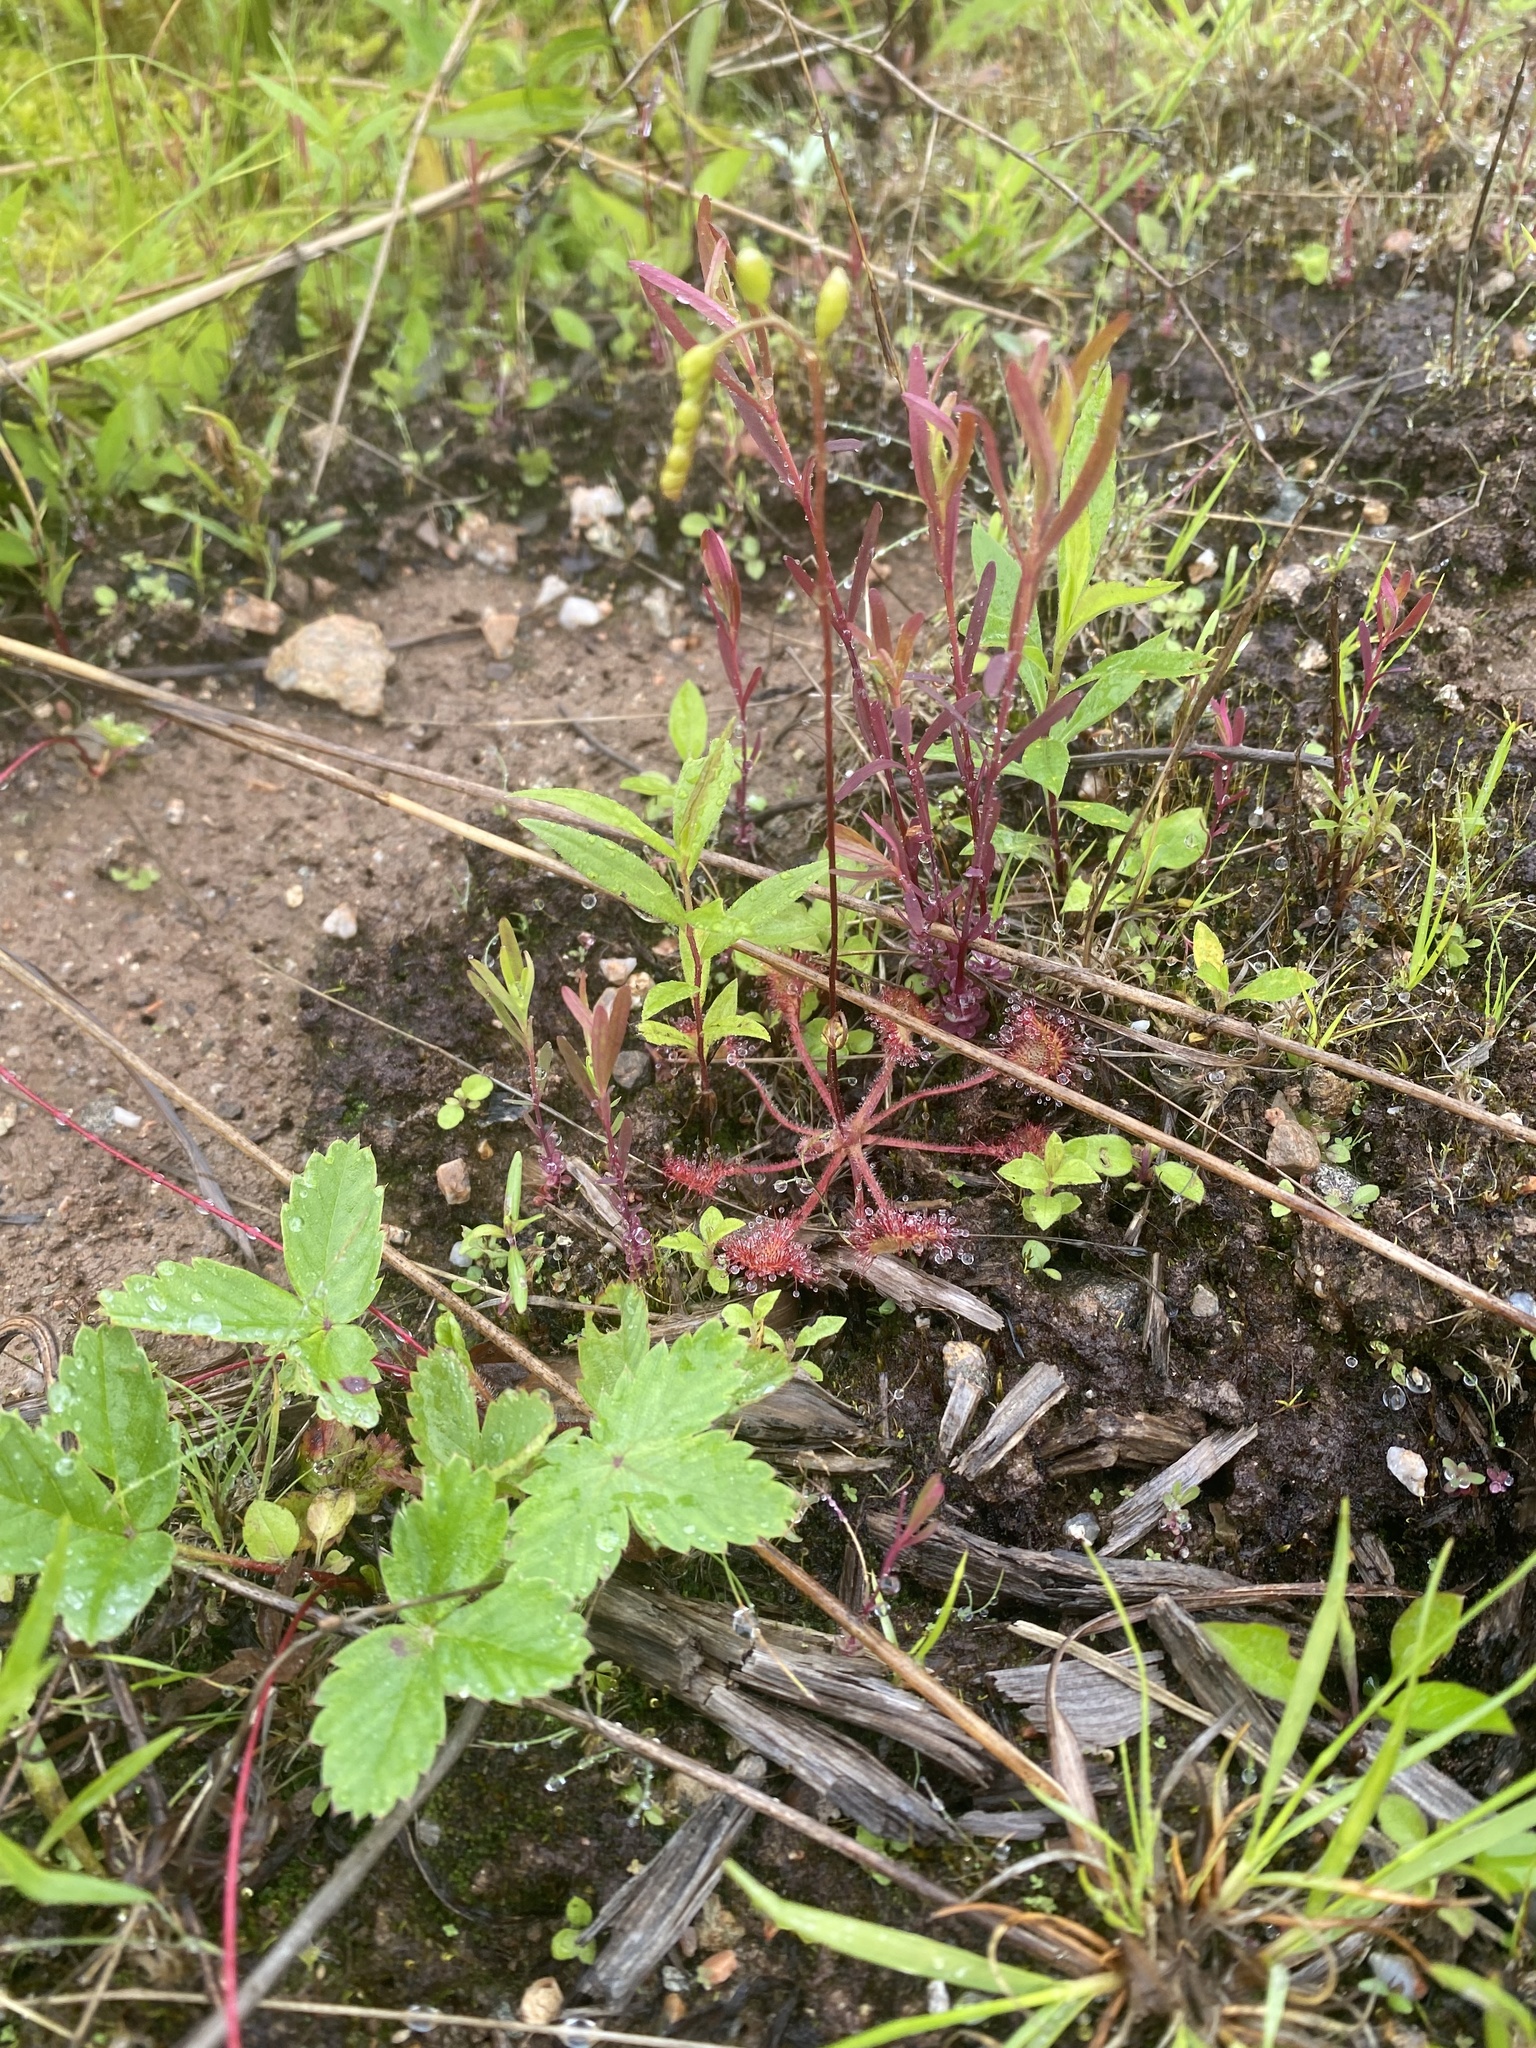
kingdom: Plantae
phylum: Tracheophyta
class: Magnoliopsida
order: Caryophyllales
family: Droseraceae
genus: Drosera
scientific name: Drosera rotundifolia
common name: Round-leaved sundew
